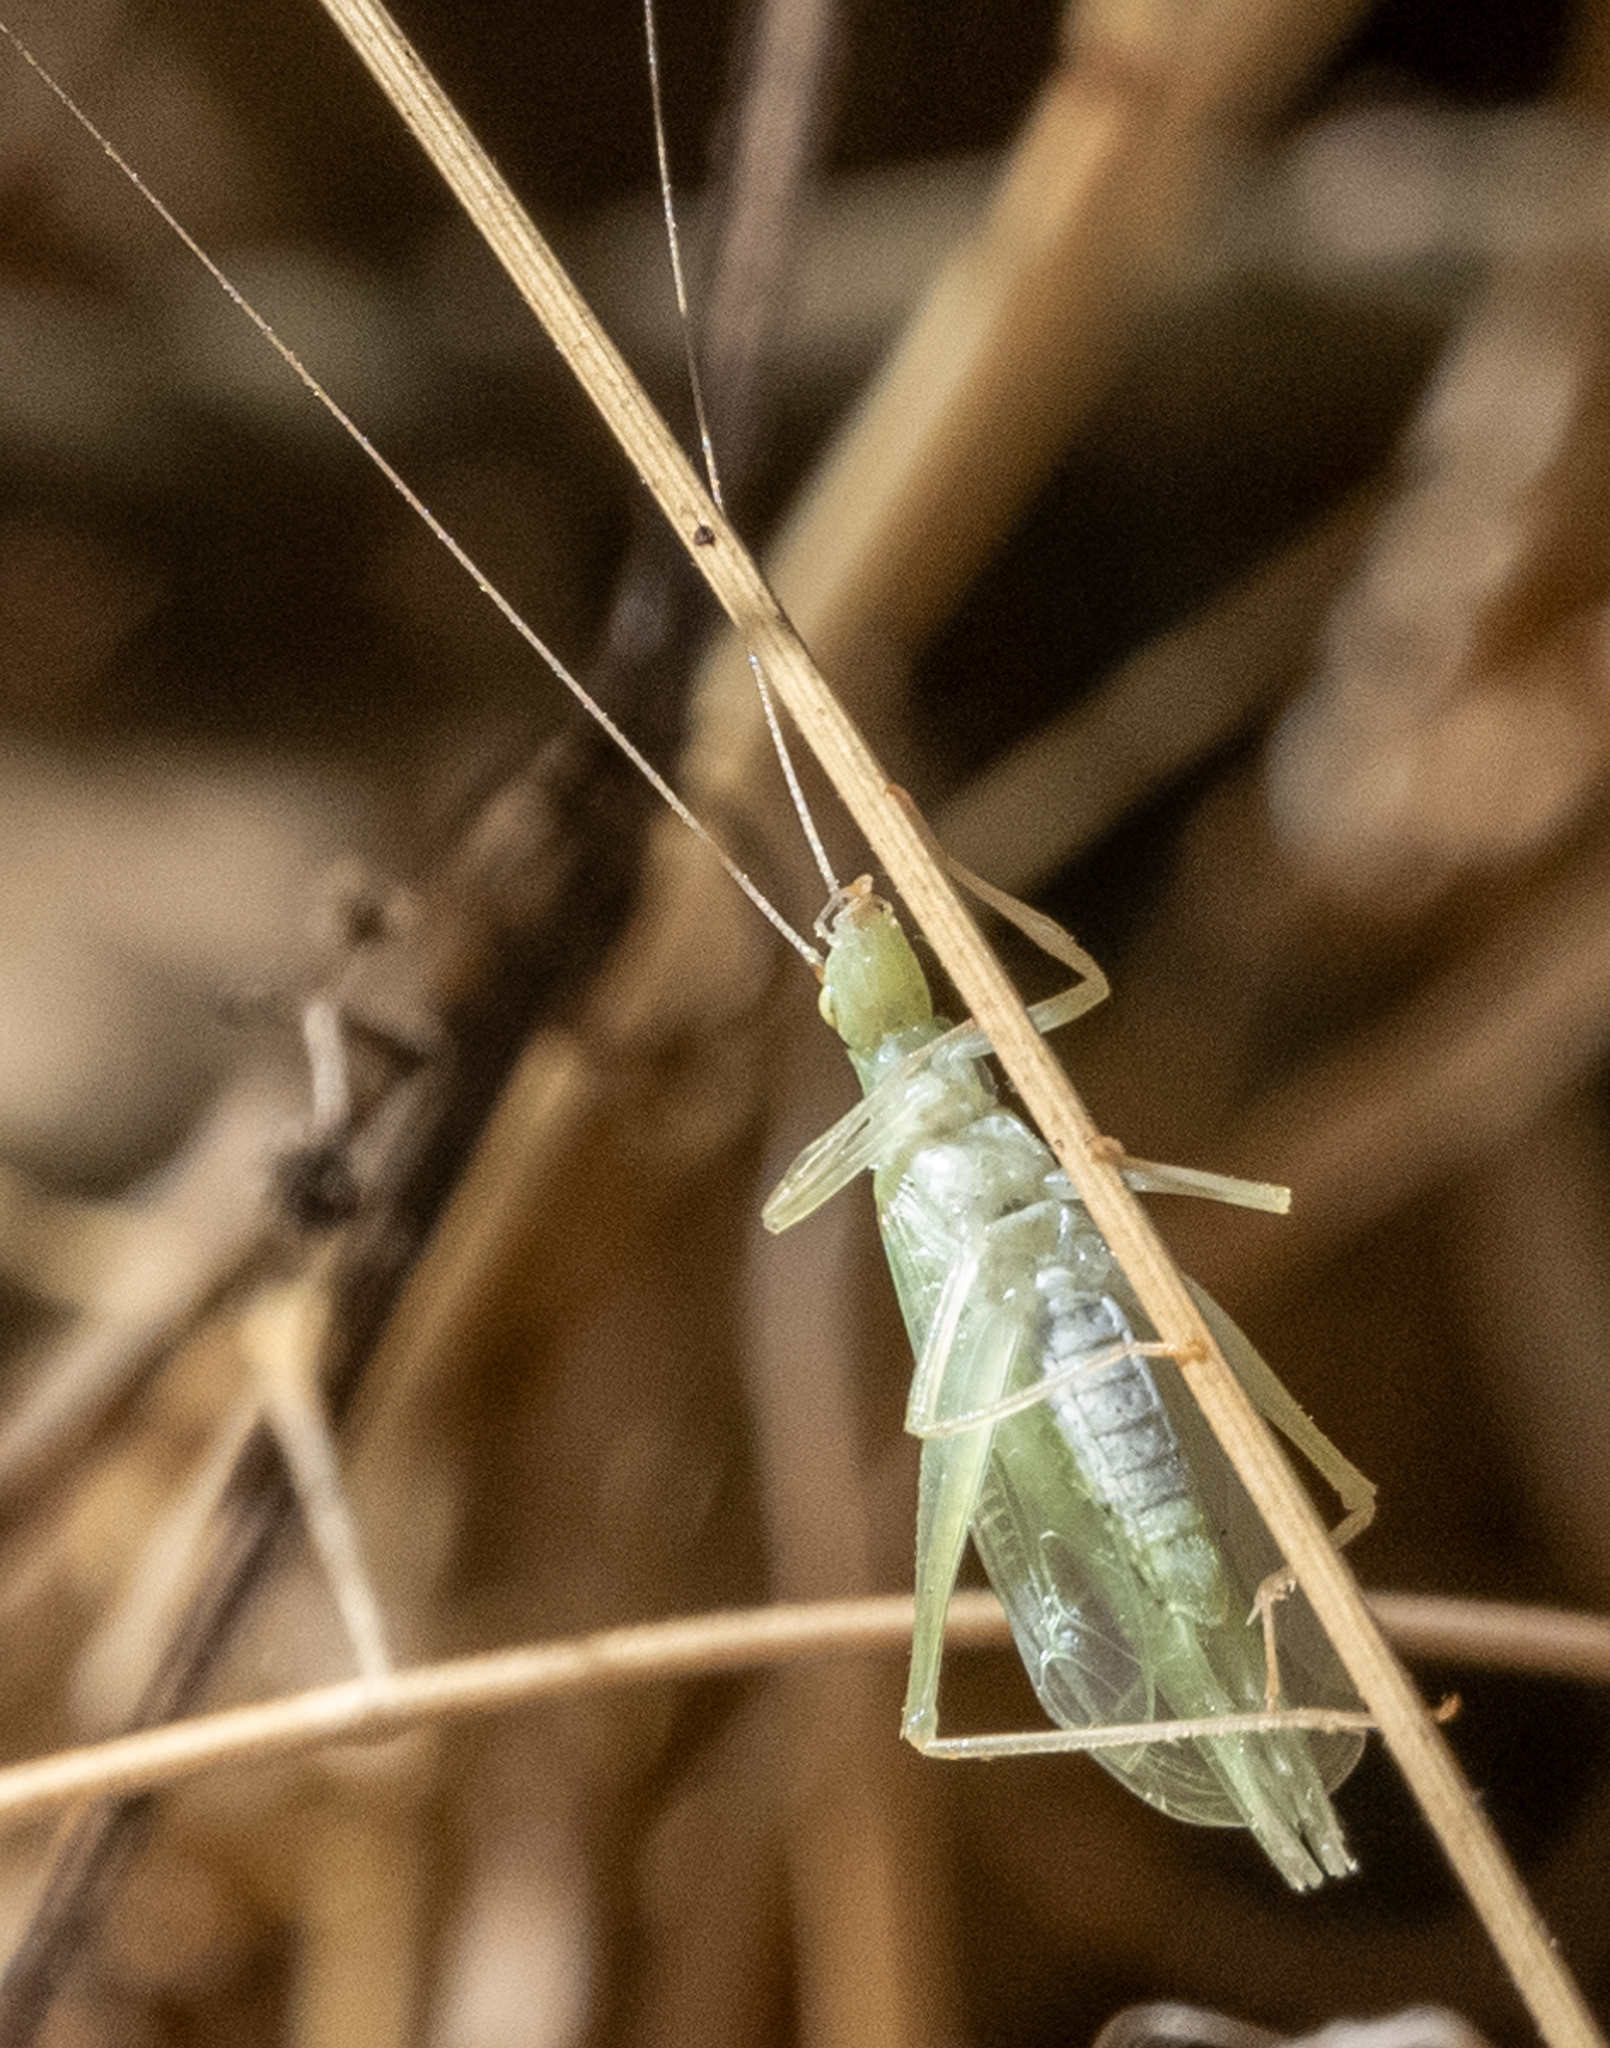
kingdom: Animalia
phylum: Arthropoda
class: Insecta
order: Orthoptera
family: Gryllidae
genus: Oecanthus
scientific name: Oecanthus fultoni
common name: Snowy tree cricket
